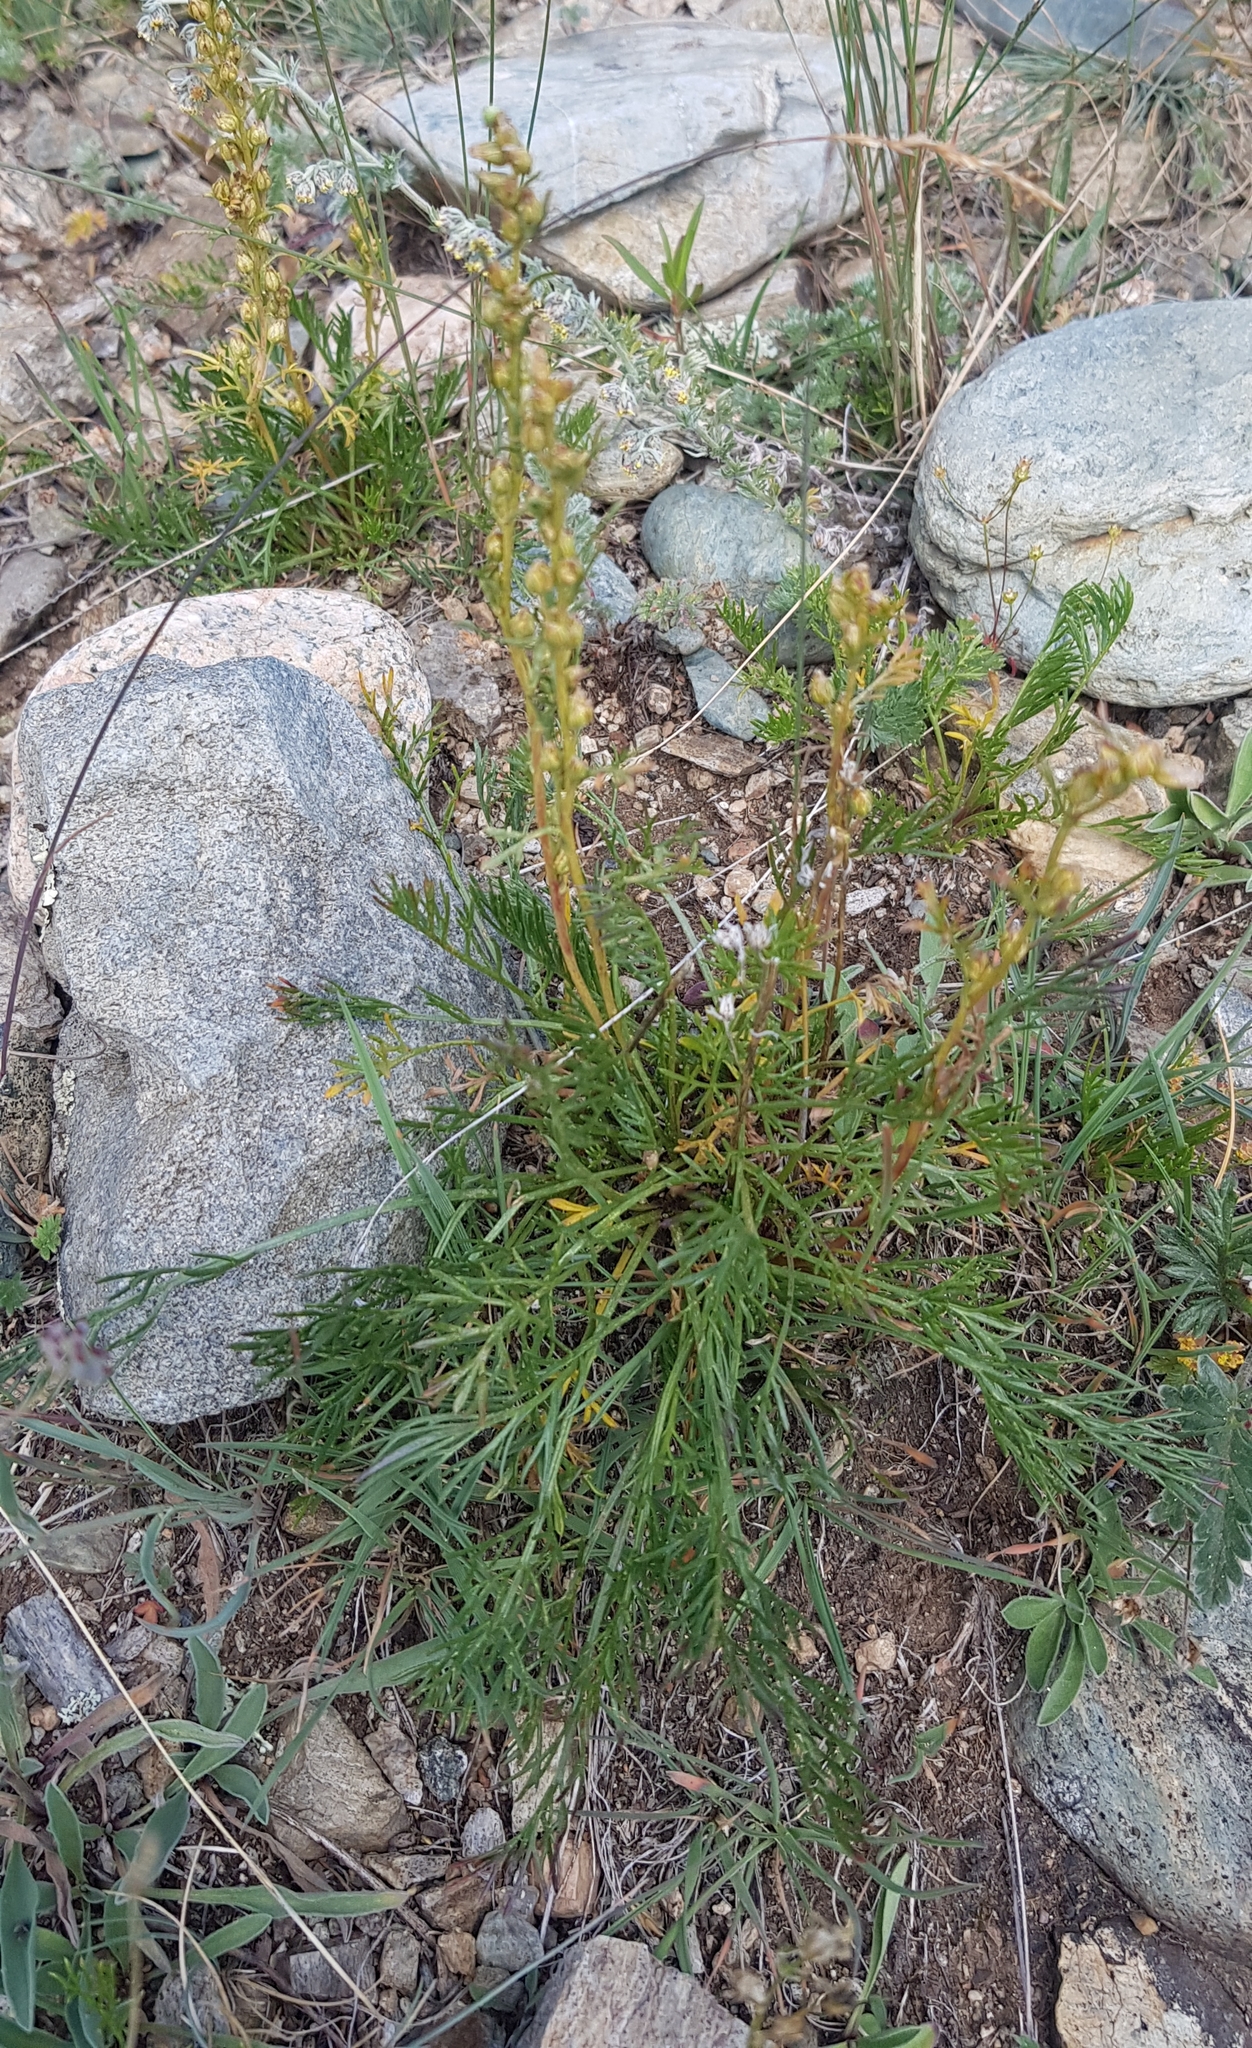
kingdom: Plantae
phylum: Tracheophyta
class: Magnoliopsida
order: Asterales
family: Asteraceae
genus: Artemisia
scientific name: Artemisia pubescens
